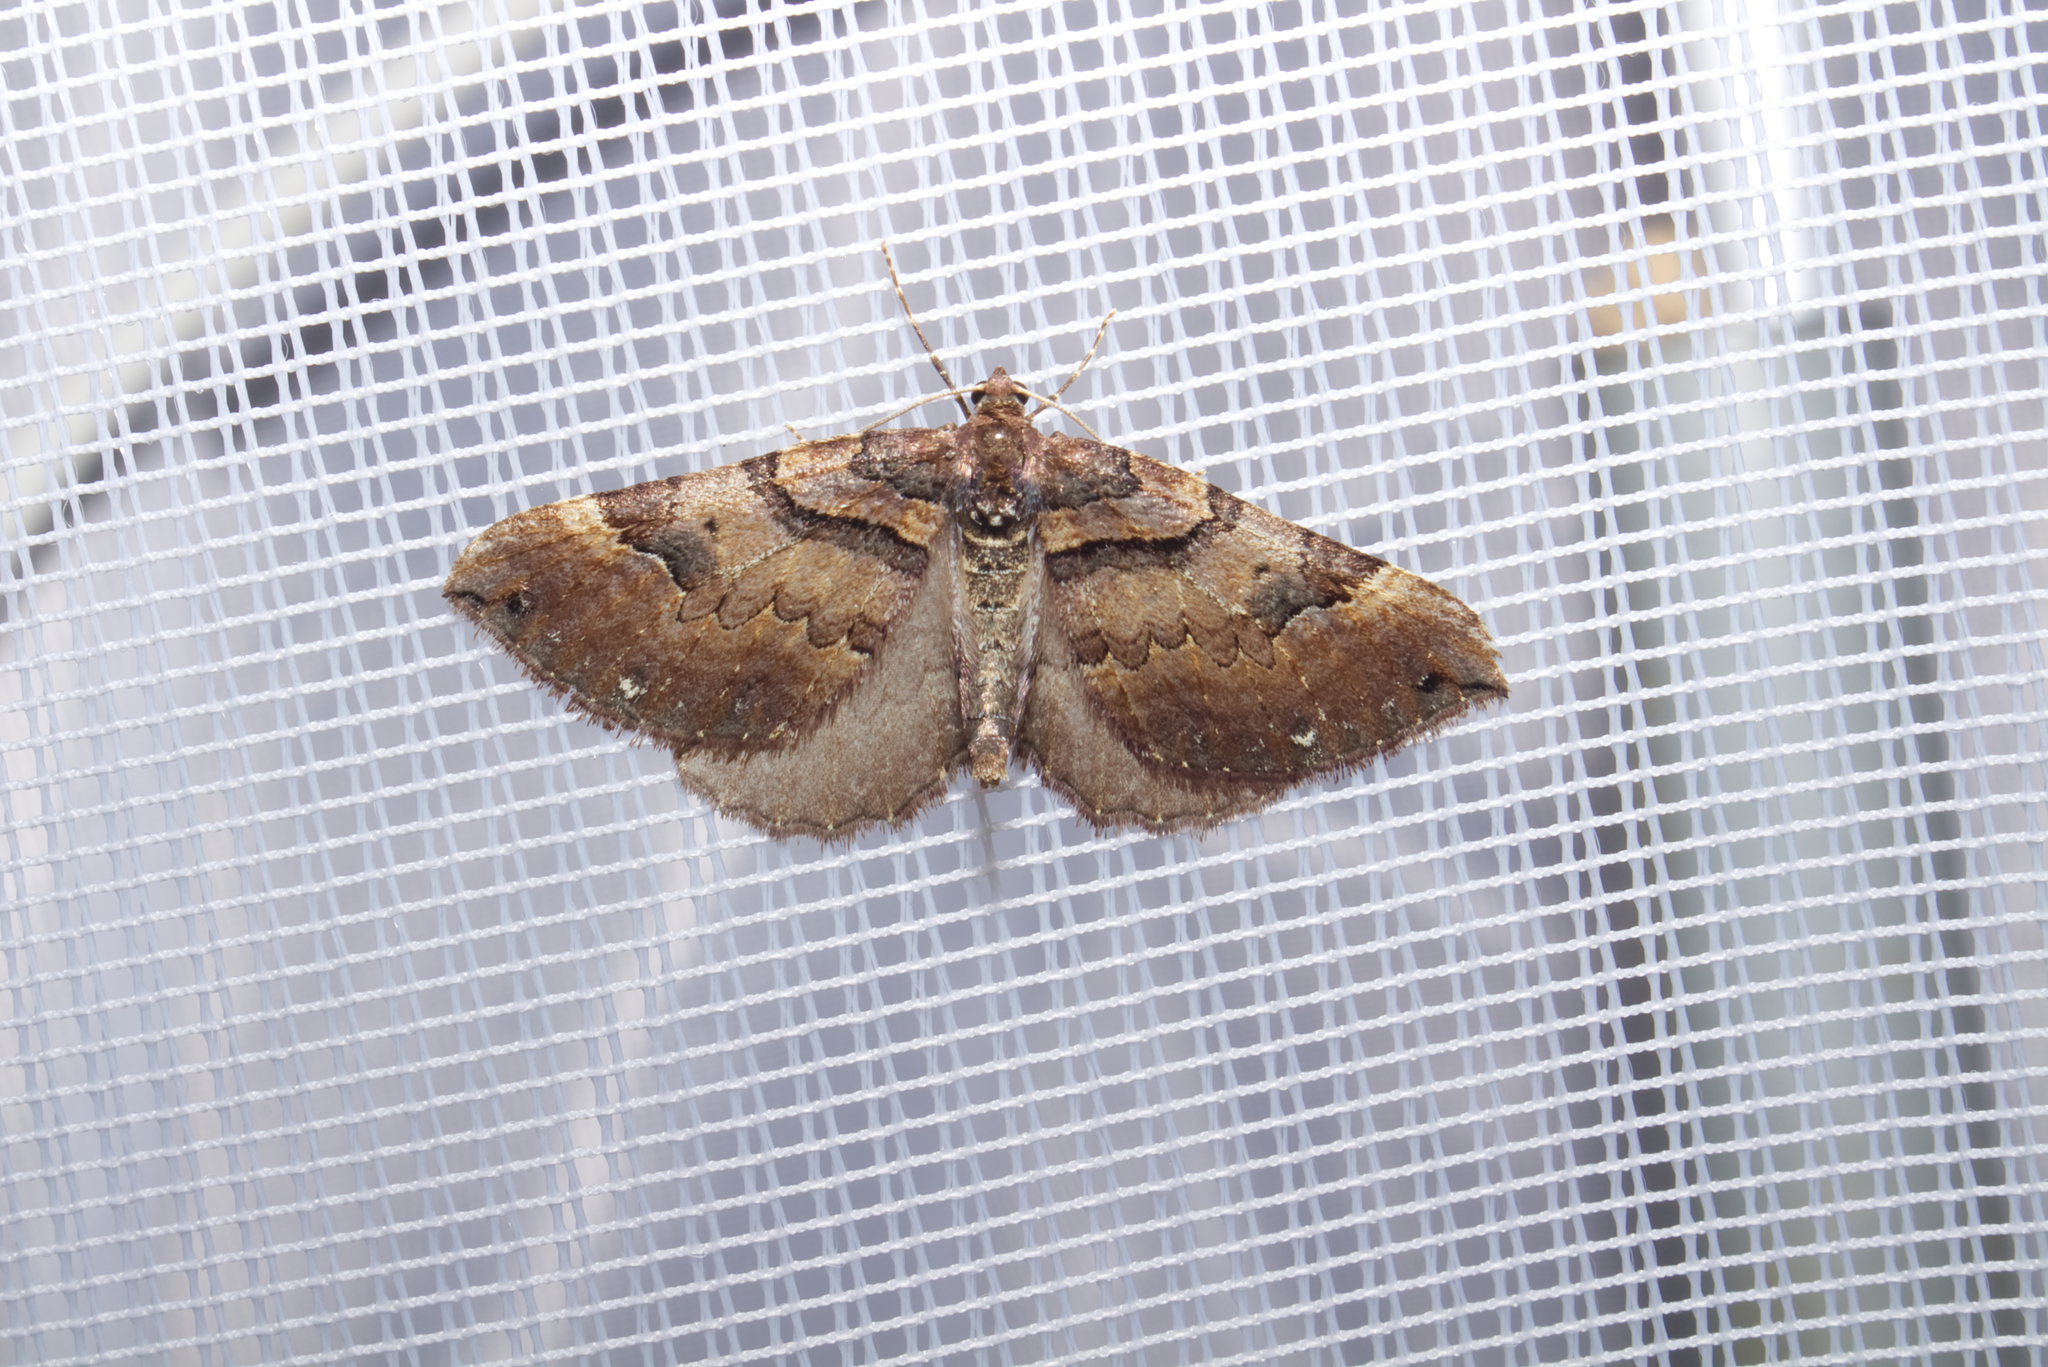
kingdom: Animalia
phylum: Arthropoda
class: Insecta
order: Lepidoptera
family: Geometridae
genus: Anticlea
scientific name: Anticlea badiata
